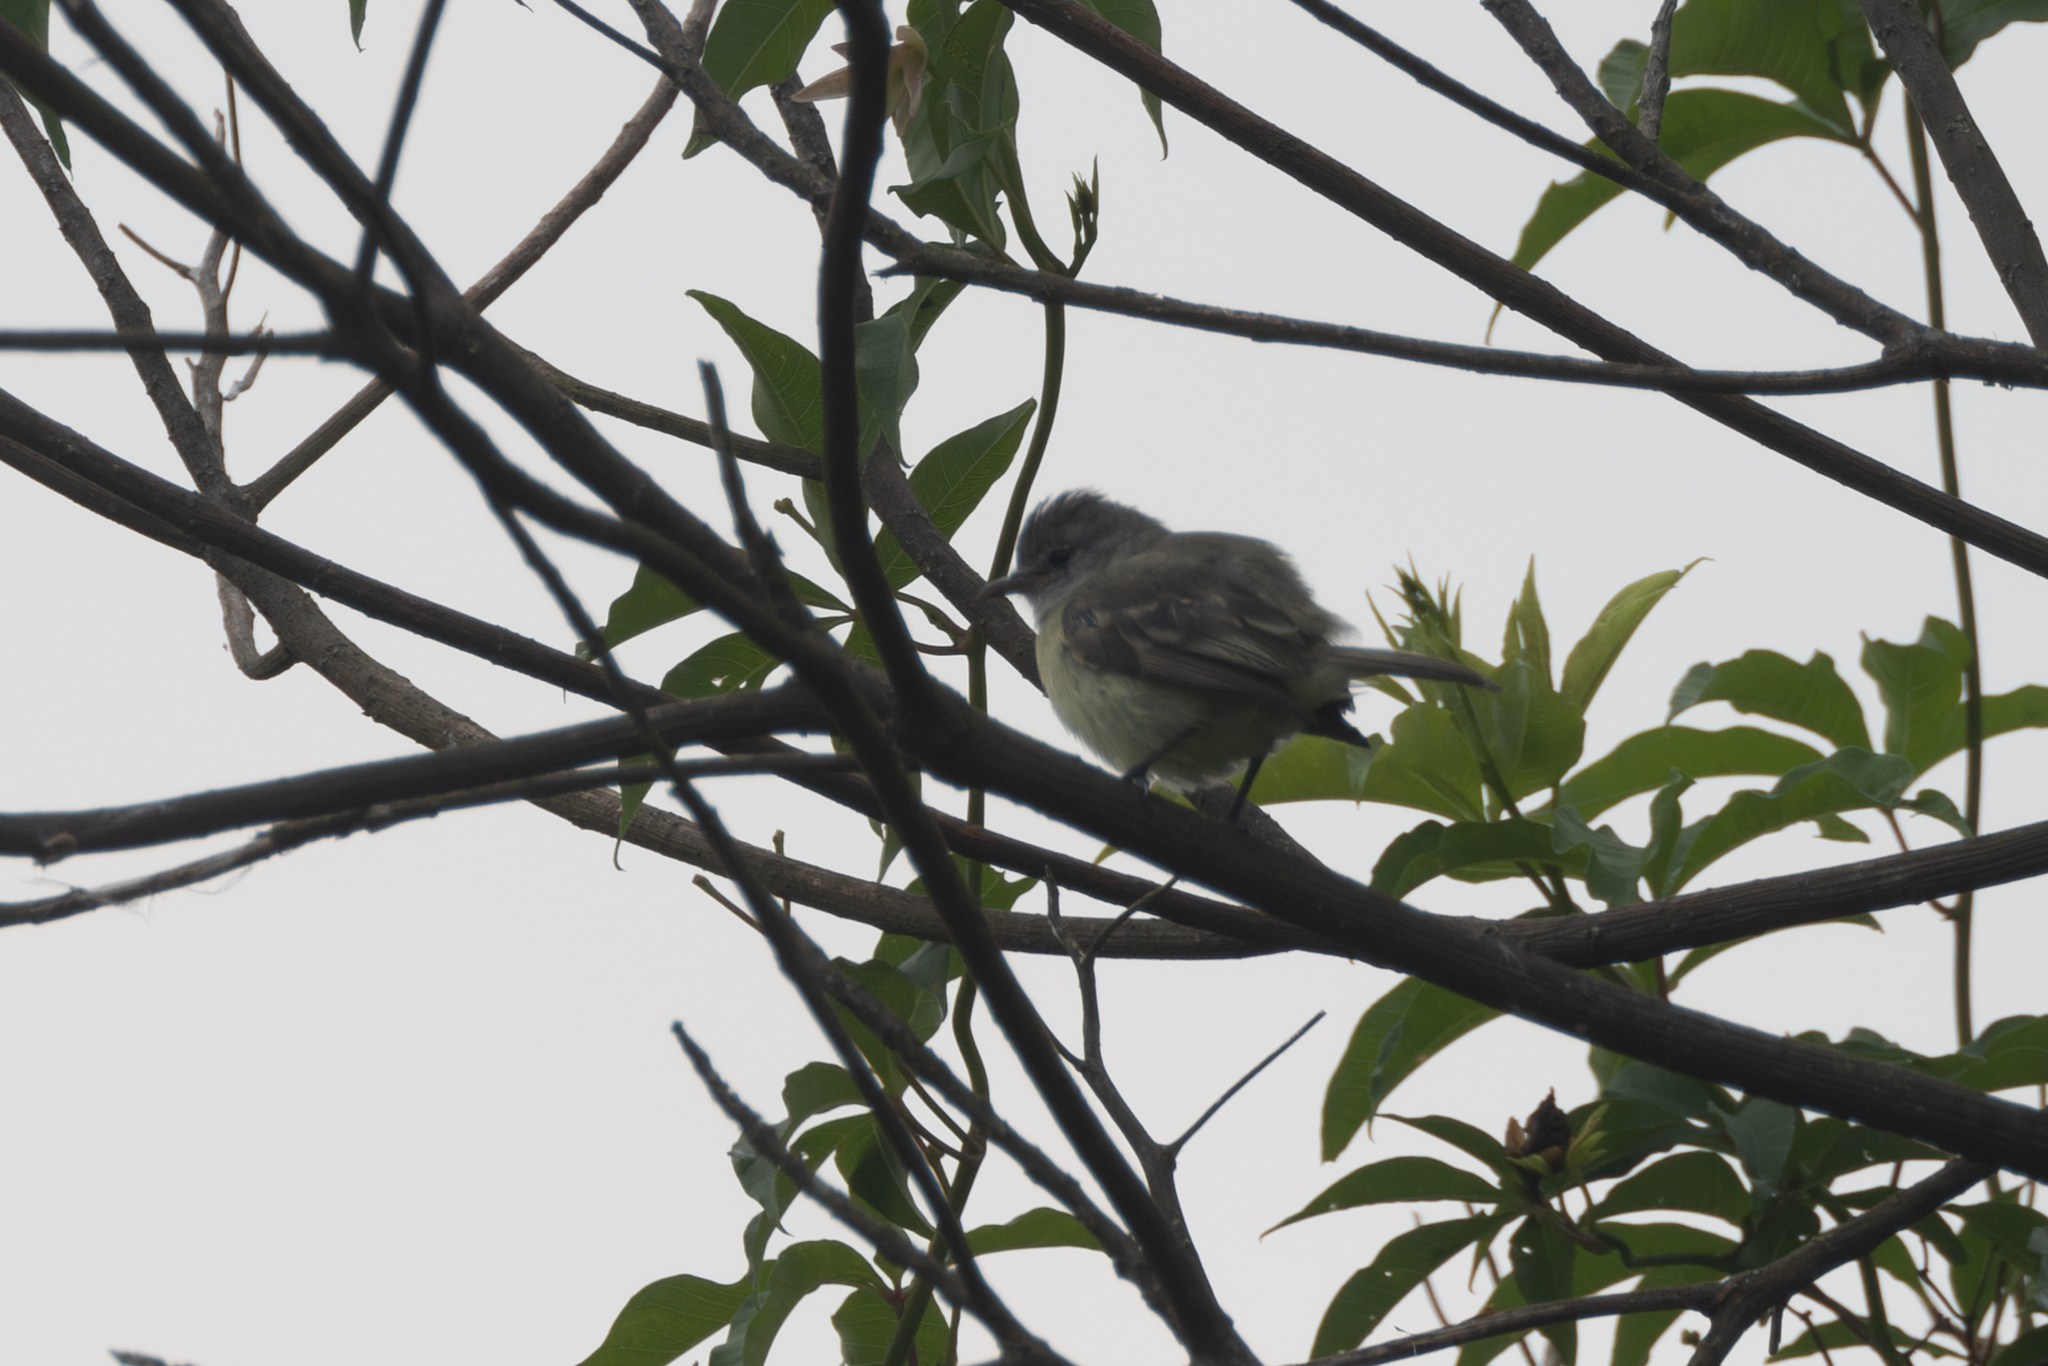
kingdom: Animalia
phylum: Chordata
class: Aves
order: Passeriformes
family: Tyrannidae
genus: Camptostoma
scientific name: Camptostoma obsoletum
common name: Southern beardless-tyrannulet
